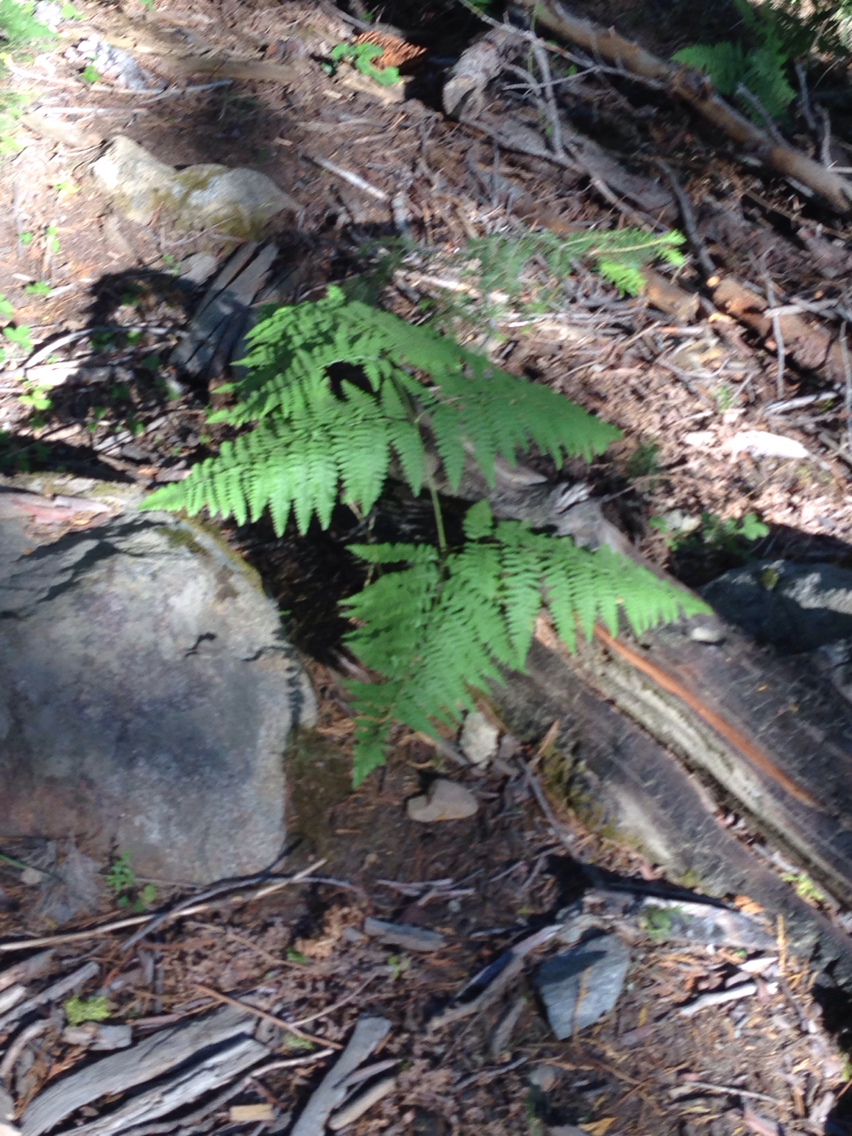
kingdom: Plantae
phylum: Tracheophyta
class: Polypodiopsida
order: Polypodiales
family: Dennstaedtiaceae
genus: Pteridium
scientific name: Pteridium aquilinum
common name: Bracken
